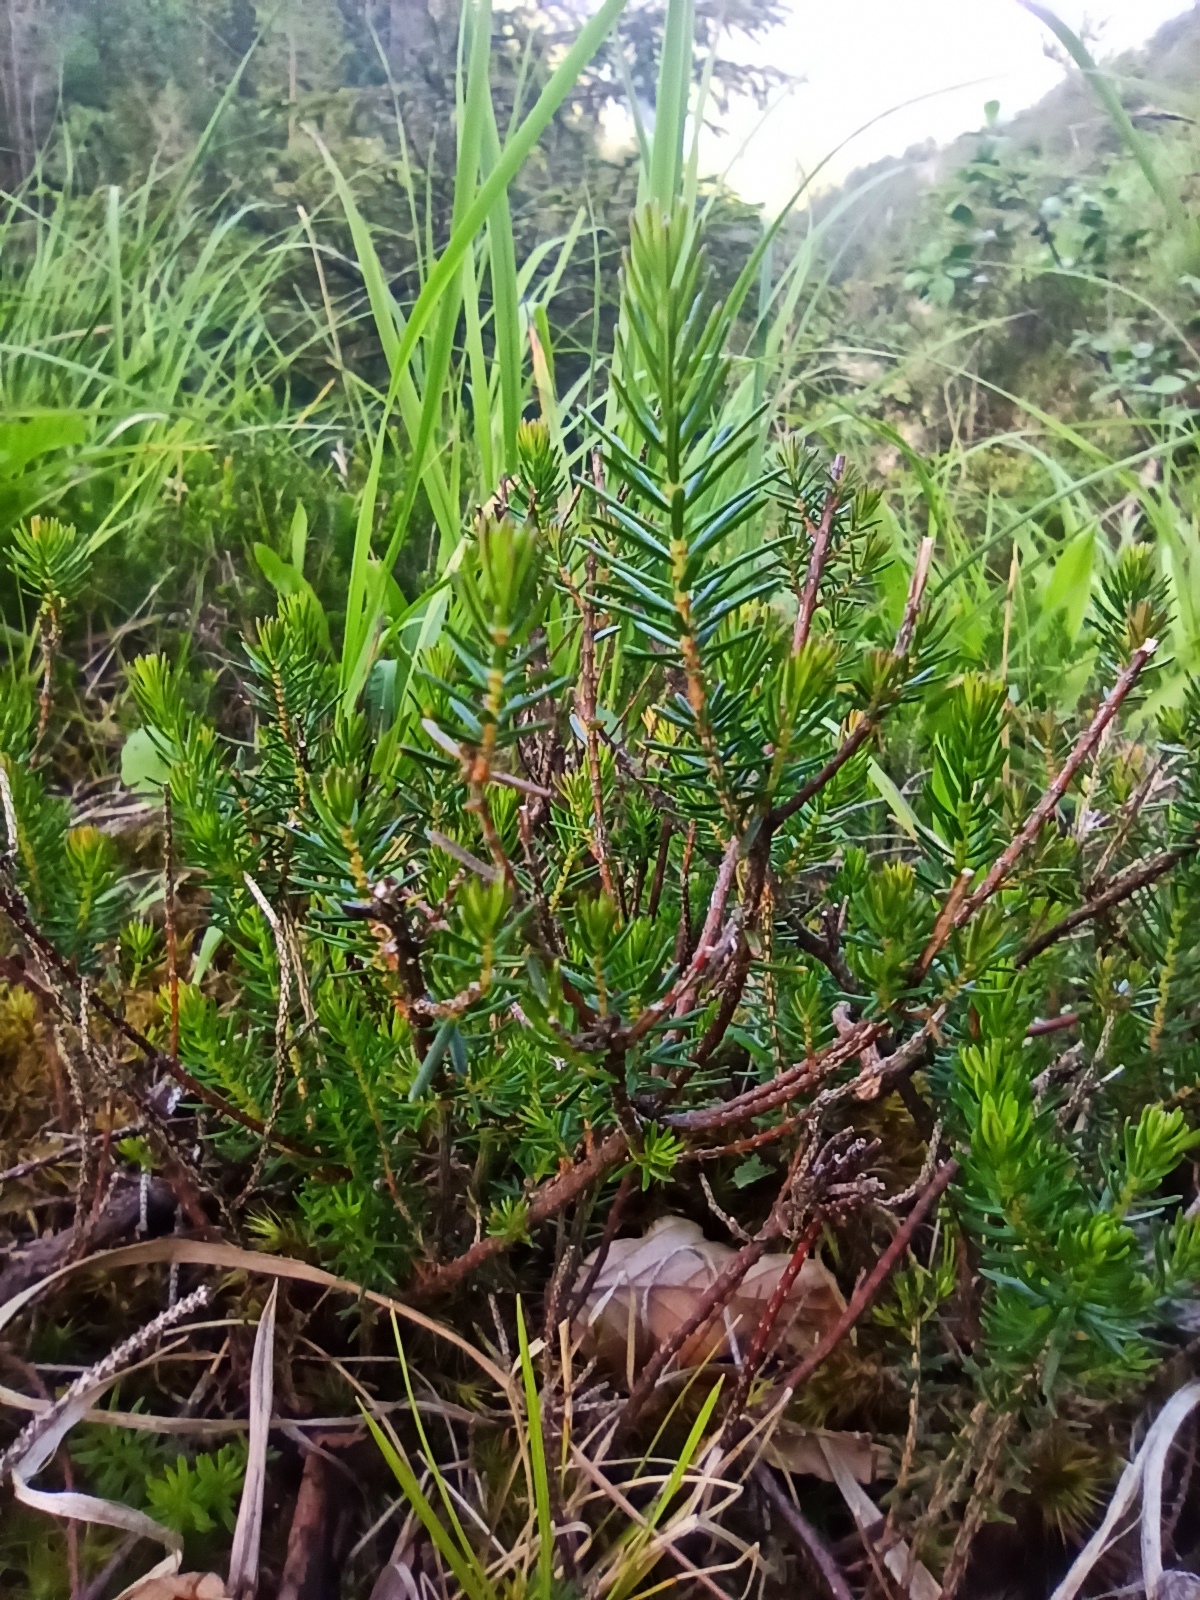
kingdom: Plantae
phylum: Tracheophyta
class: Magnoliopsida
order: Ericales
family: Ericaceae
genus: Erica
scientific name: Erica carnea
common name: Winter heath
